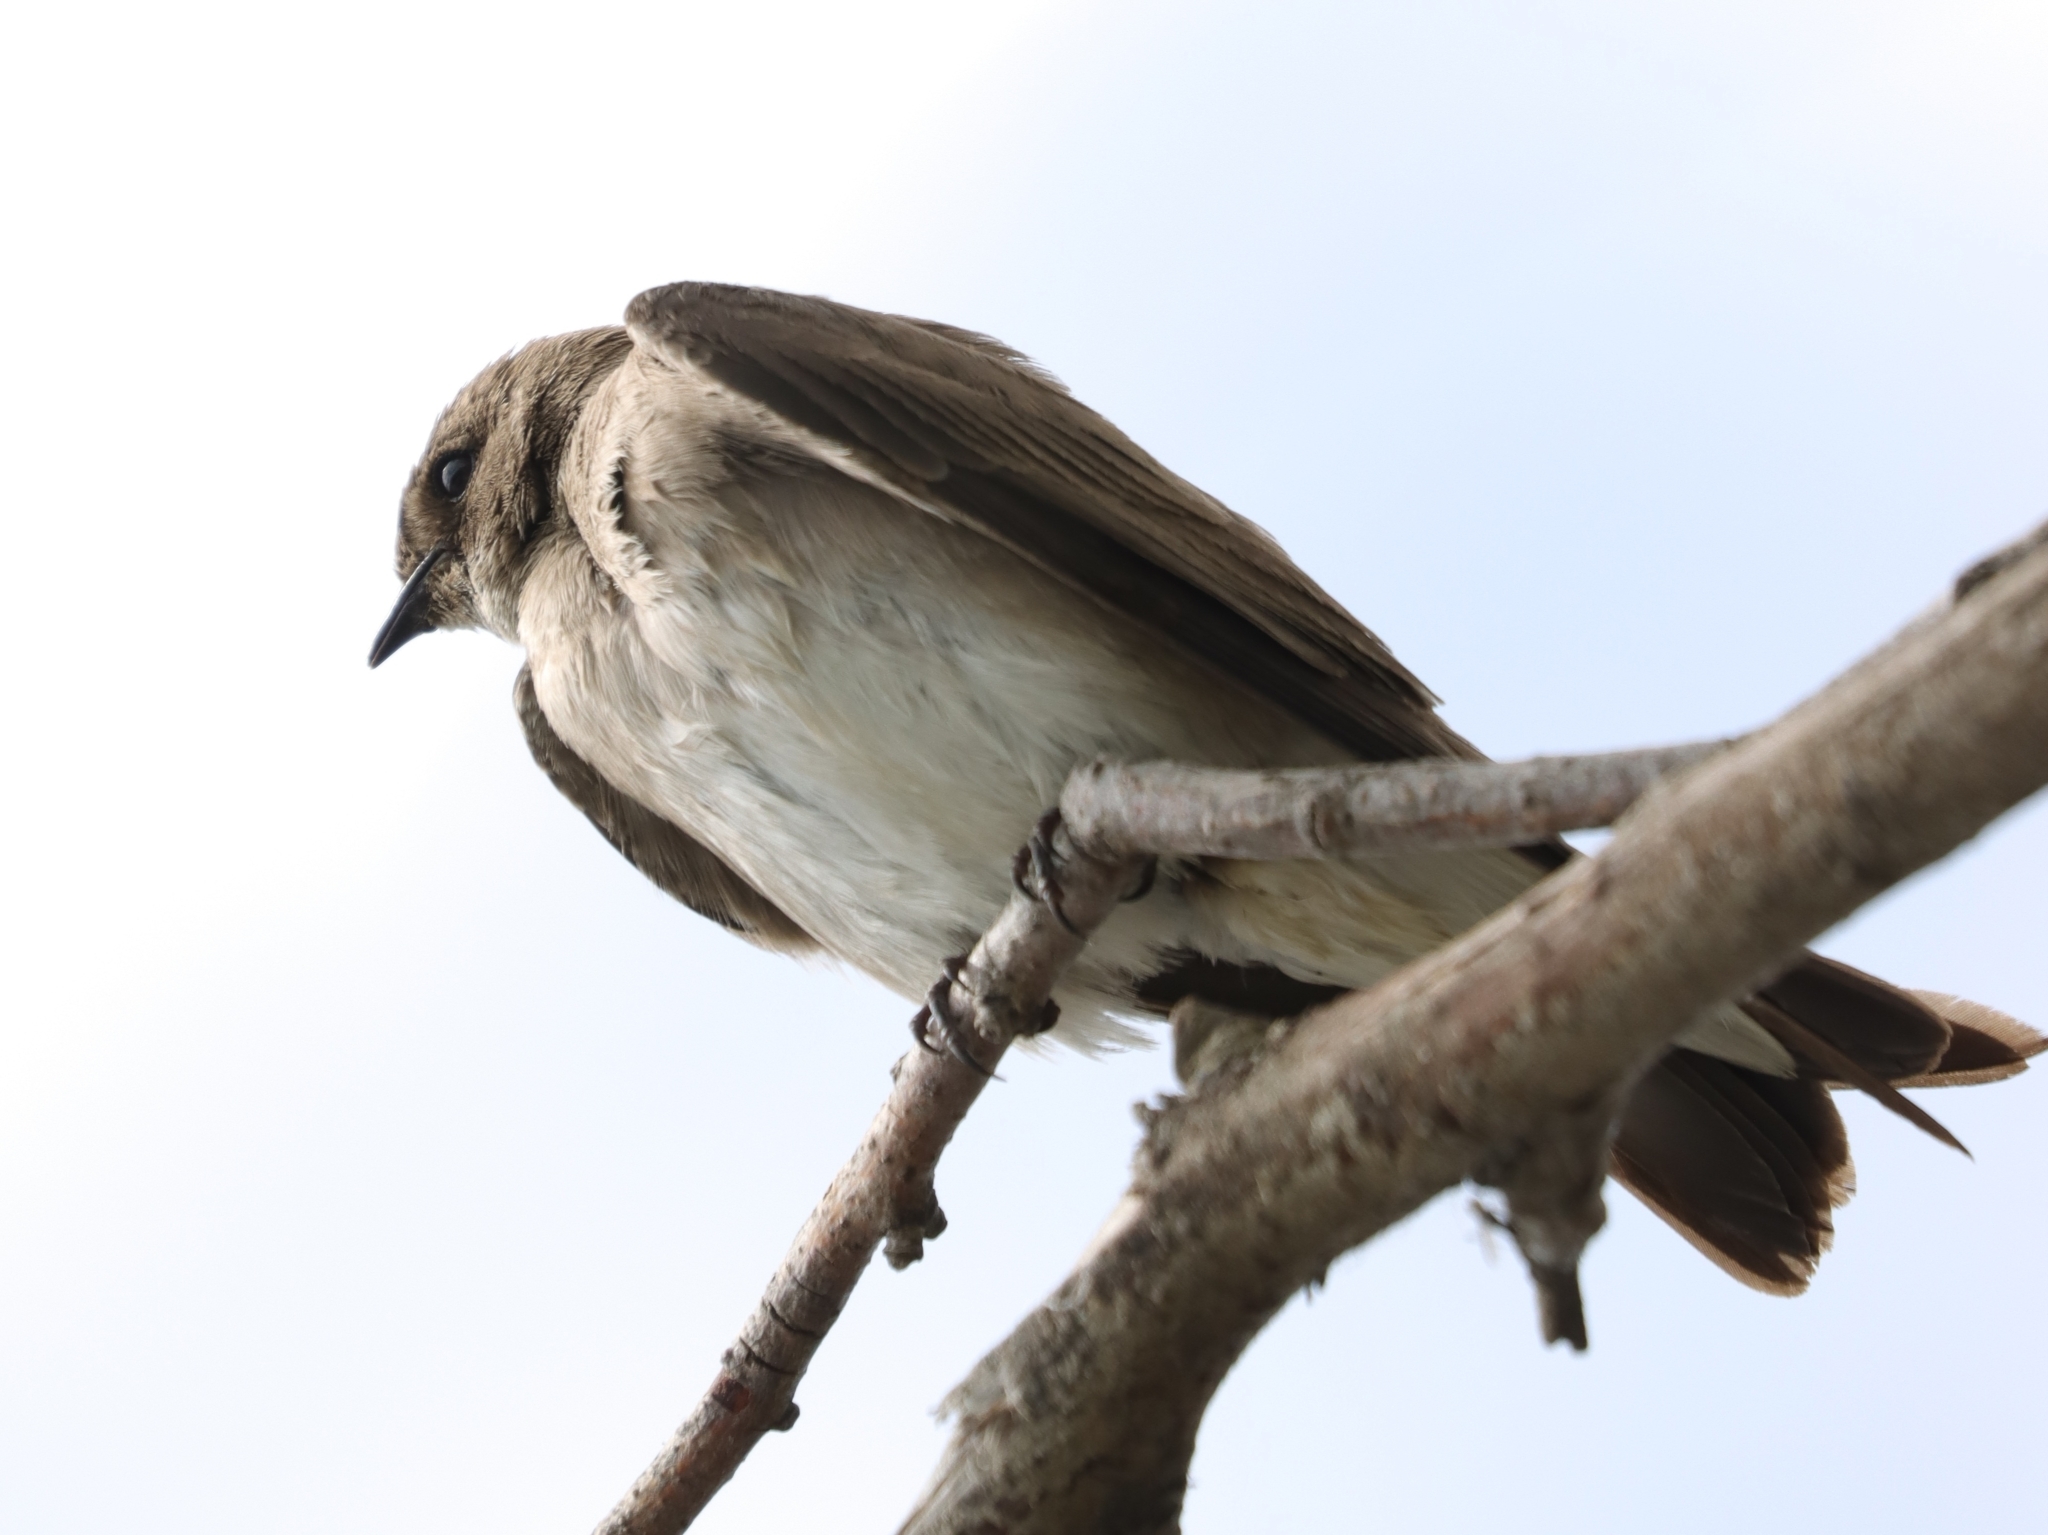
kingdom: Animalia
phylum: Chordata
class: Aves
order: Passeriformes
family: Hirundinidae
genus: Stelgidopteryx
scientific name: Stelgidopteryx serripennis
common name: Northern rough-winged swallow
